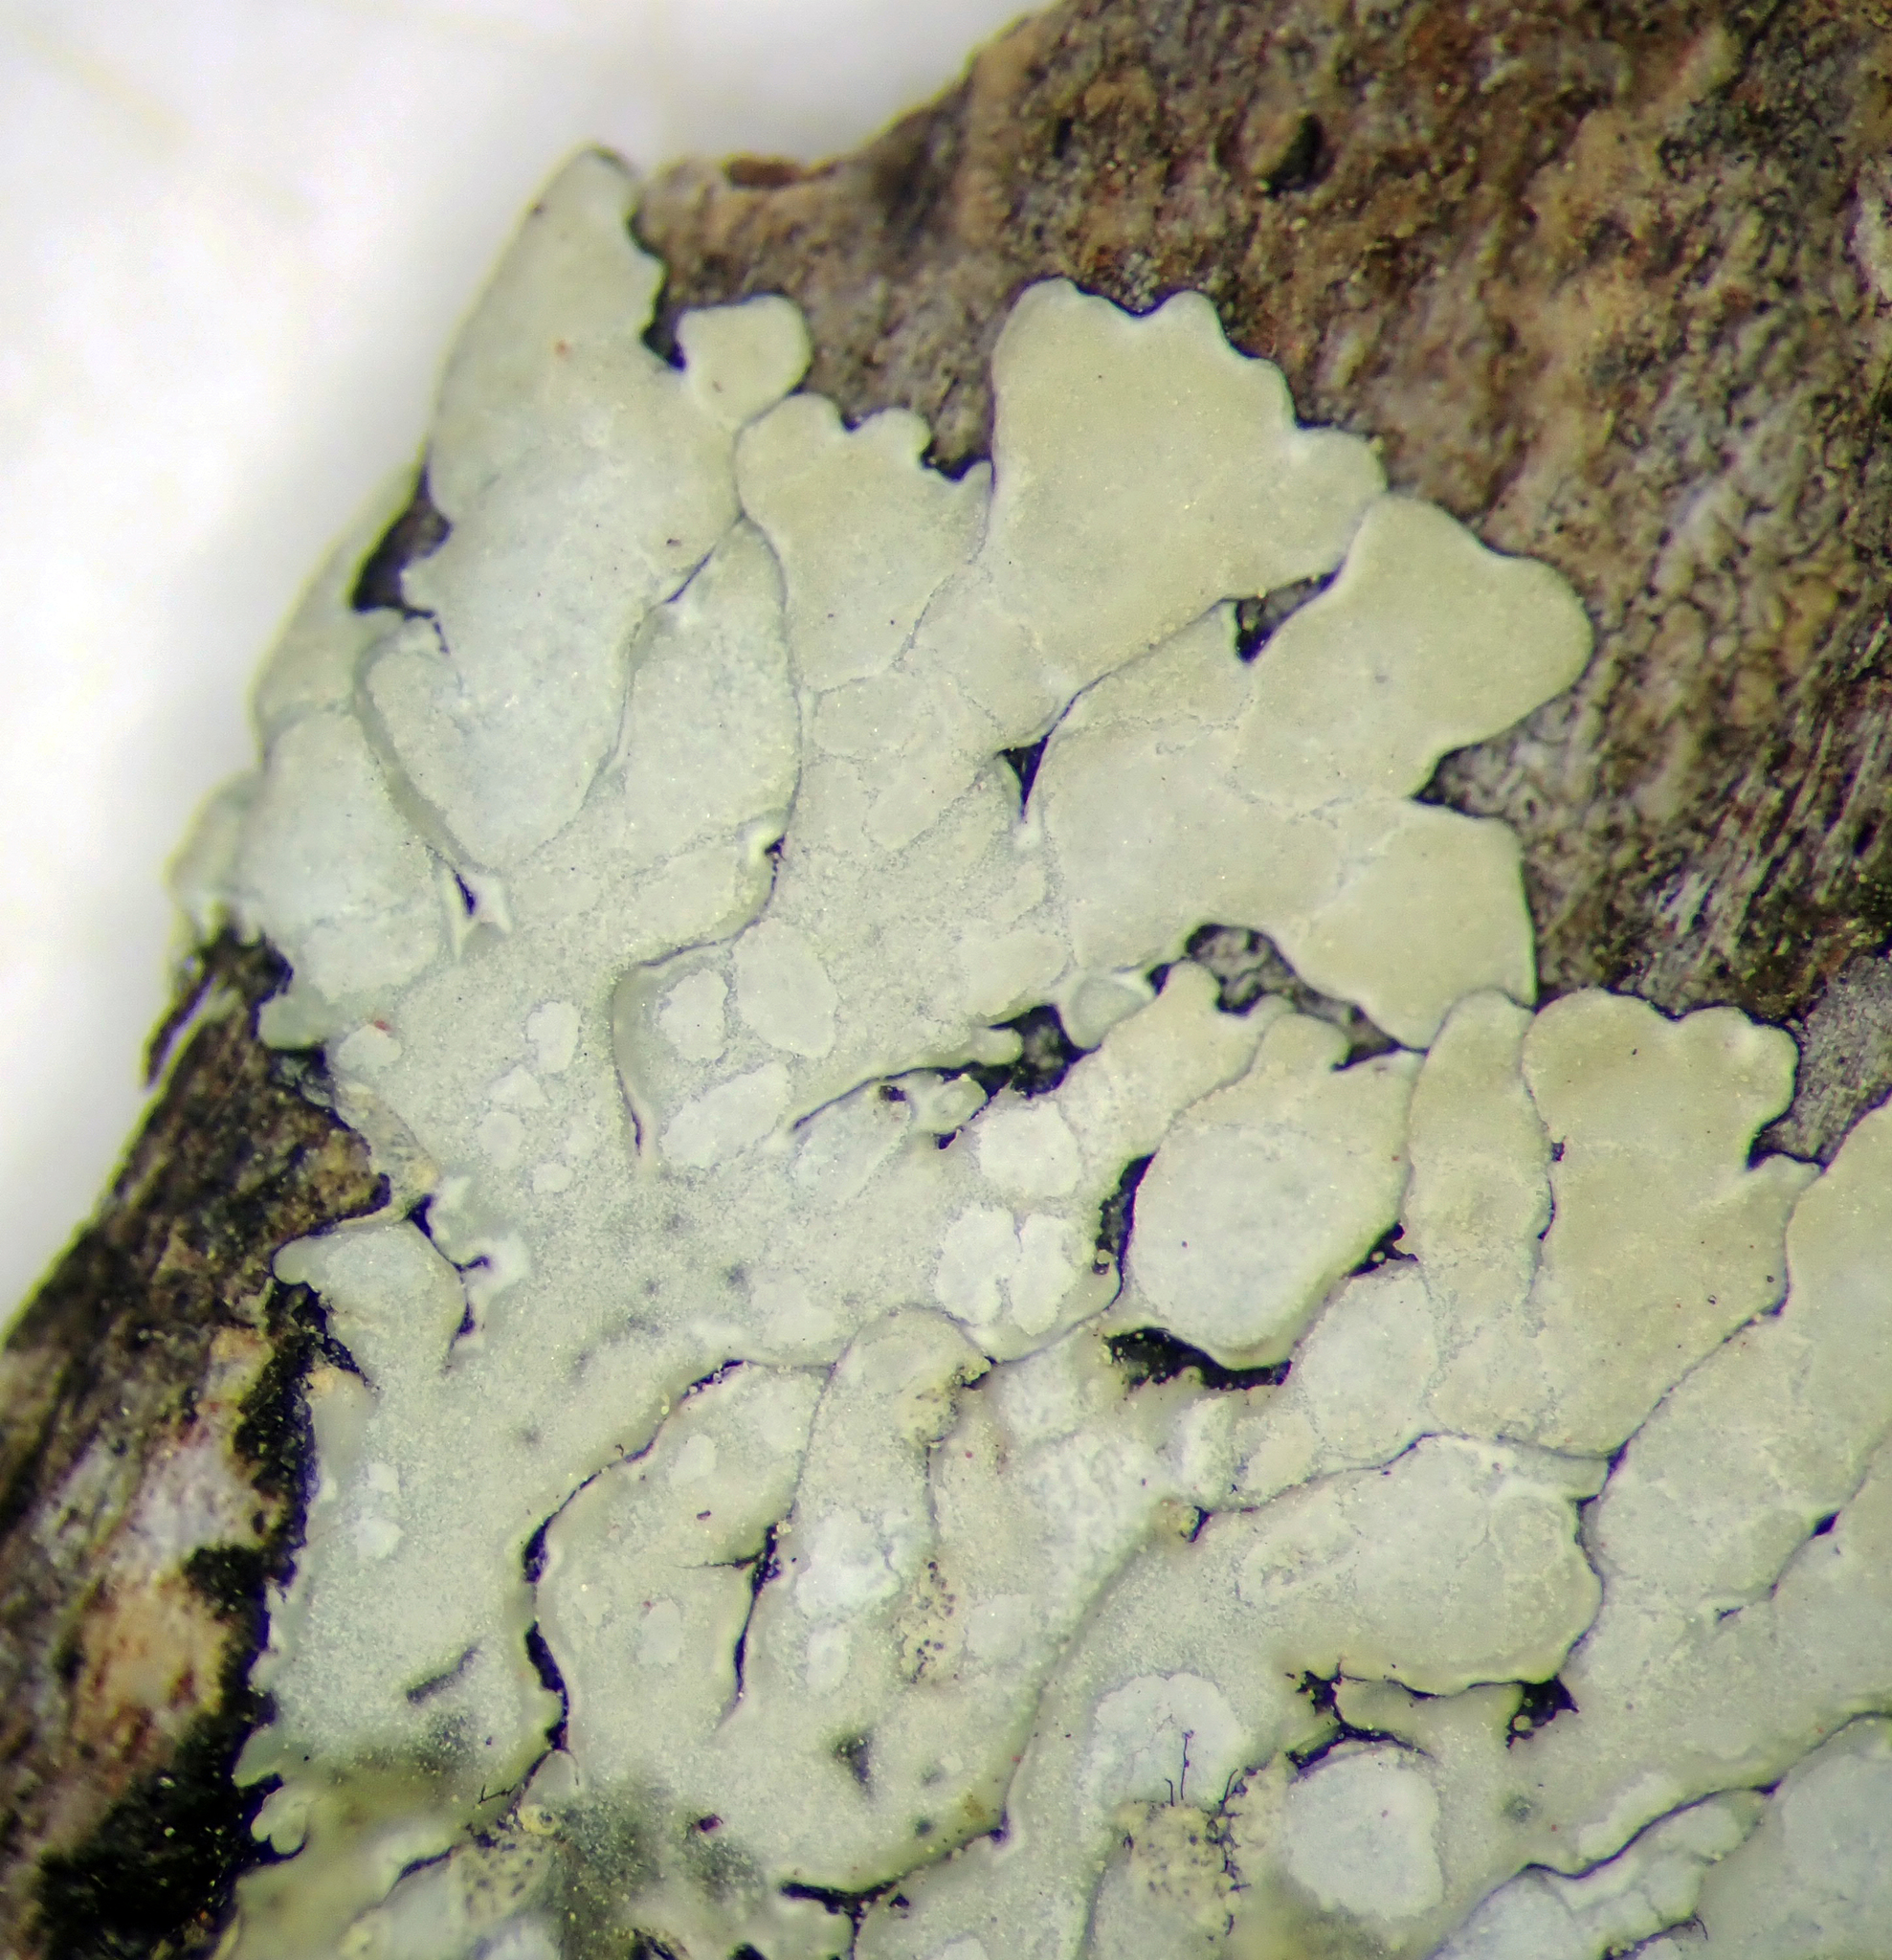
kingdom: Fungi
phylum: Ascomycota
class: Lecanoromycetes
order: Caliciales
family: Caliciaceae
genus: Pyxine
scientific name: Pyxine subcinerea
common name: Mustard lichen
